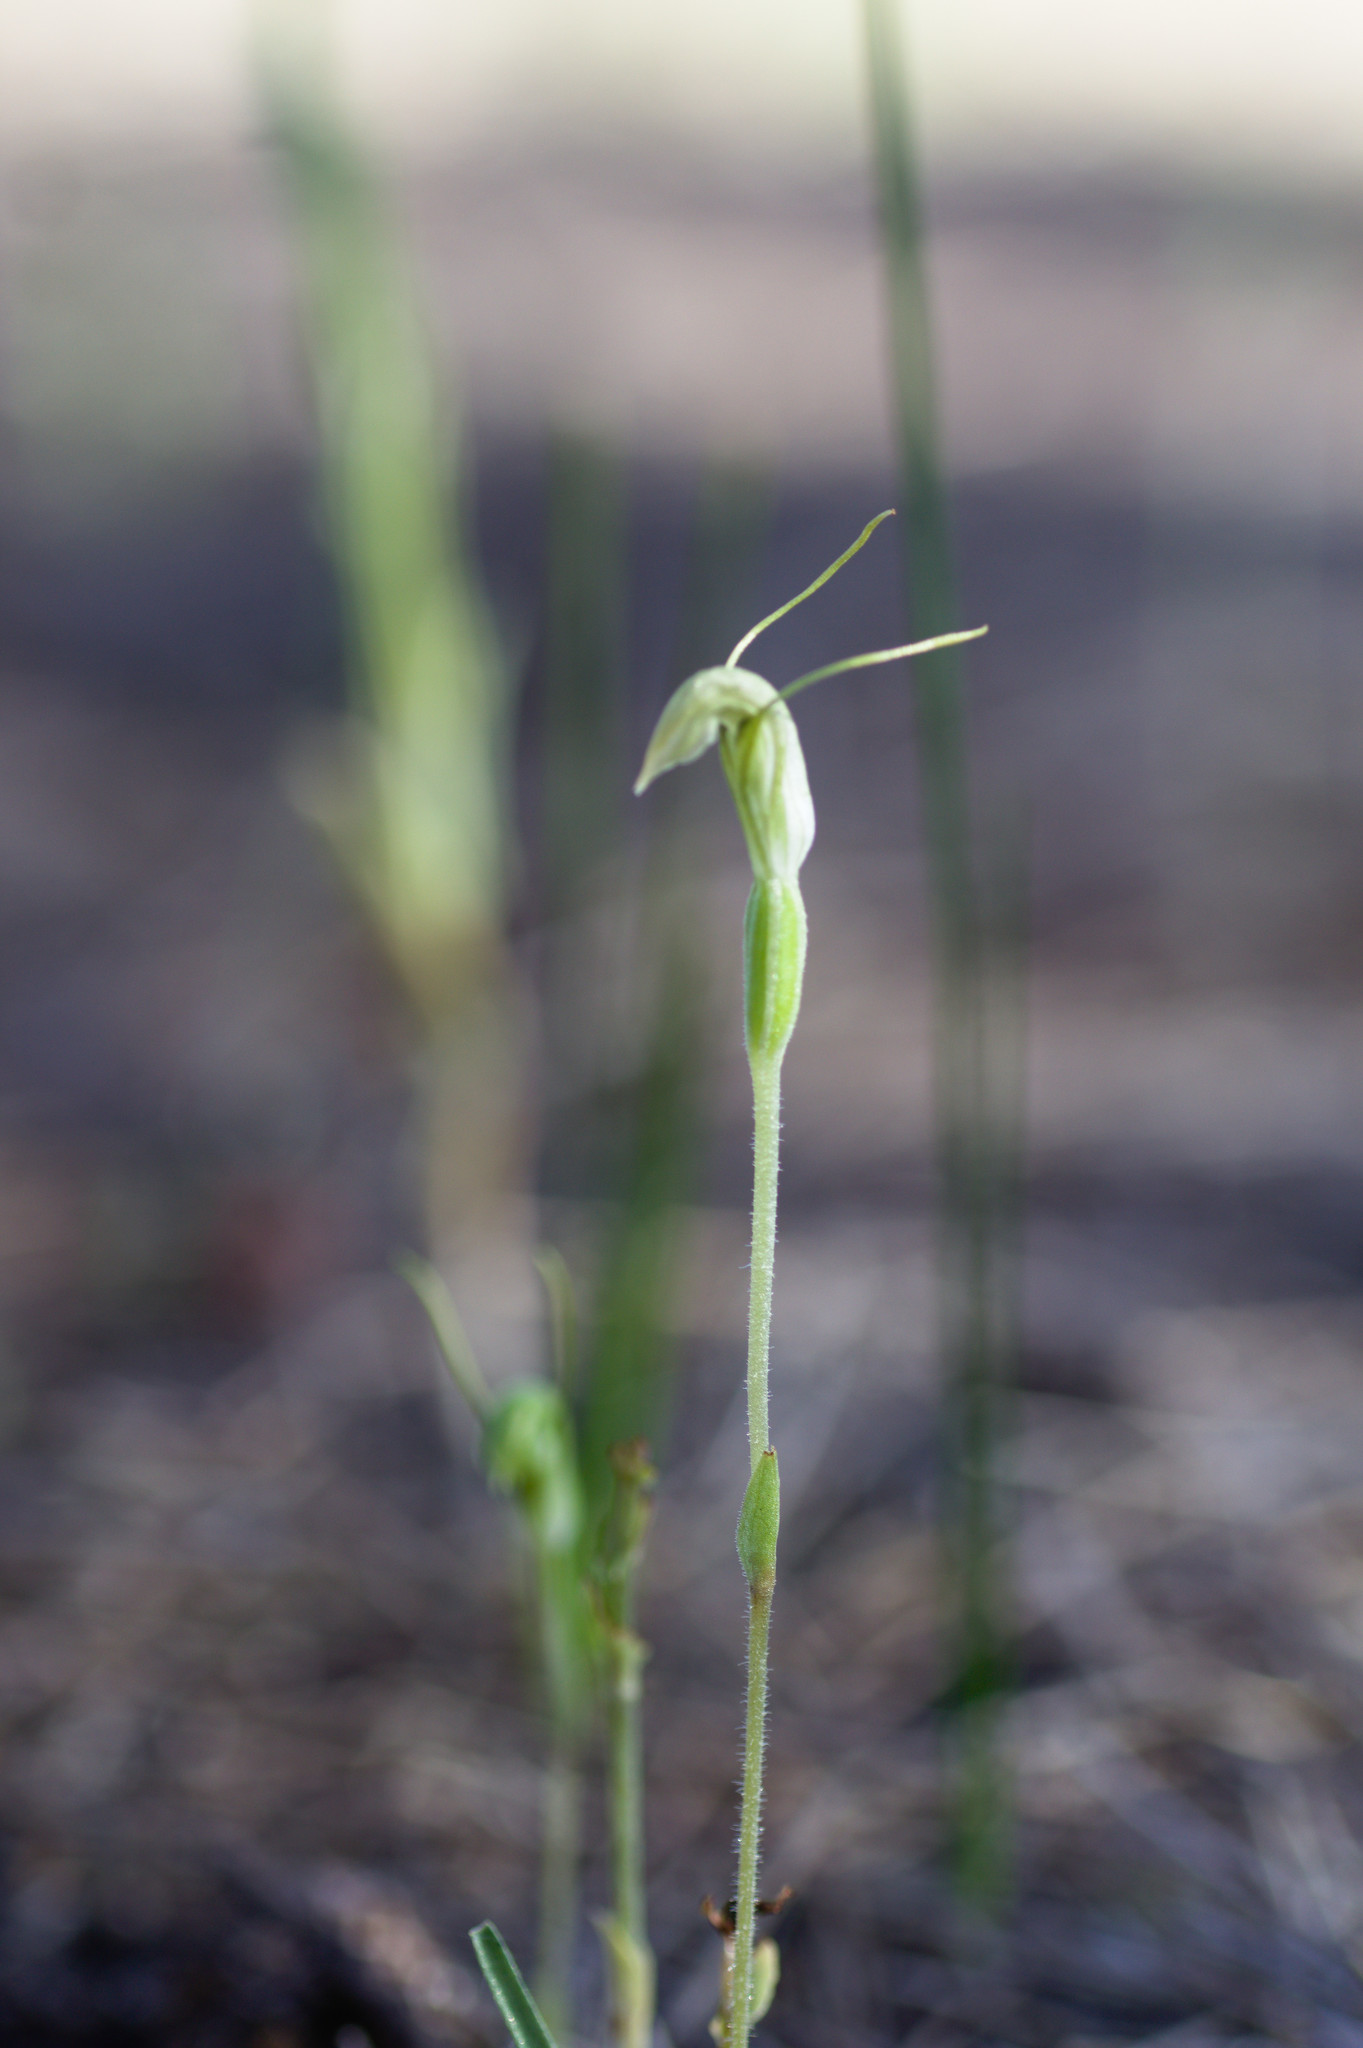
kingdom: Plantae
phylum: Tracheophyta
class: Liliopsida
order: Asparagales
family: Orchidaceae
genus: Pterostylis
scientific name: Pterostylis setulosa
